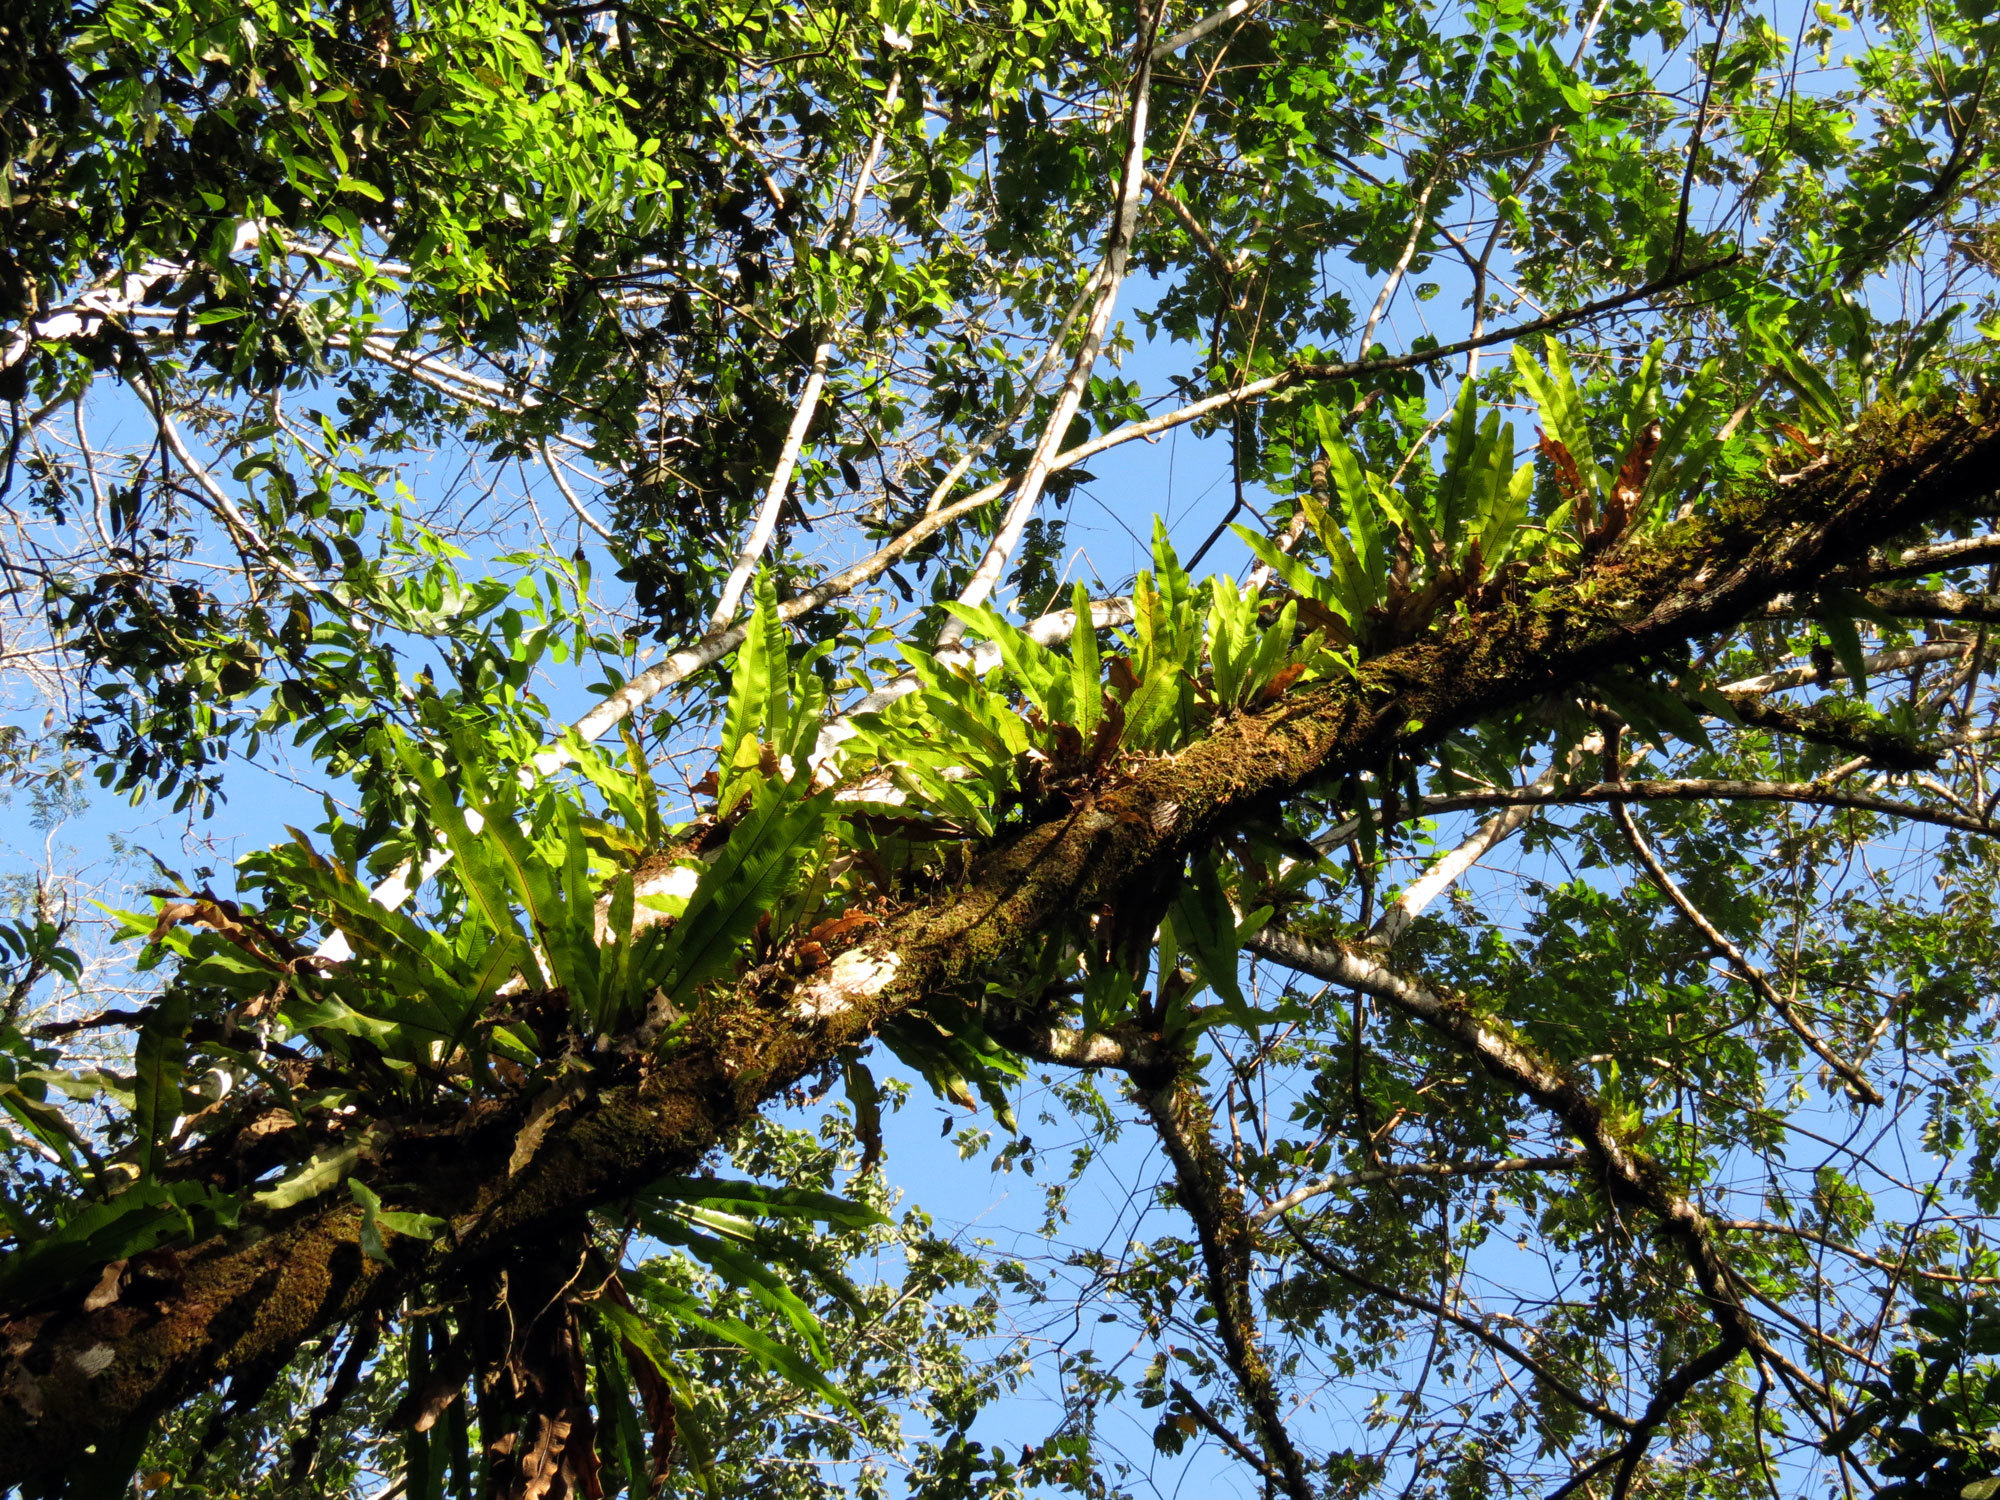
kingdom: Plantae
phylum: Tracheophyta
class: Polypodiopsida
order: Polypodiales
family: Polypodiaceae
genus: Niphidium
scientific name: Niphidium crassifolium
